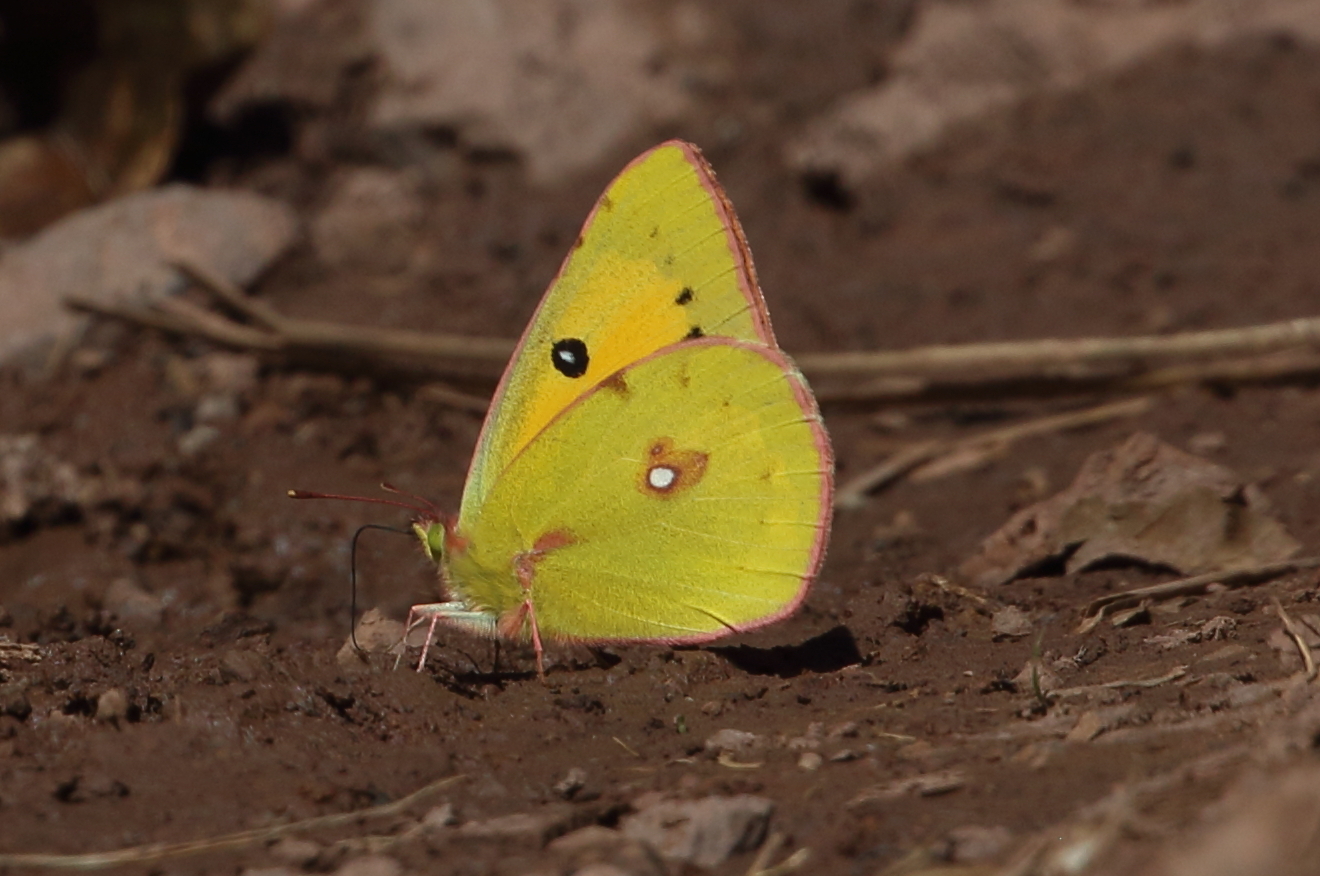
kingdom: Animalia
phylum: Arthropoda
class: Insecta
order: Lepidoptera
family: Pieridae
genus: Colias
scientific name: Colias fieldii
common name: Dark clouded yellow
